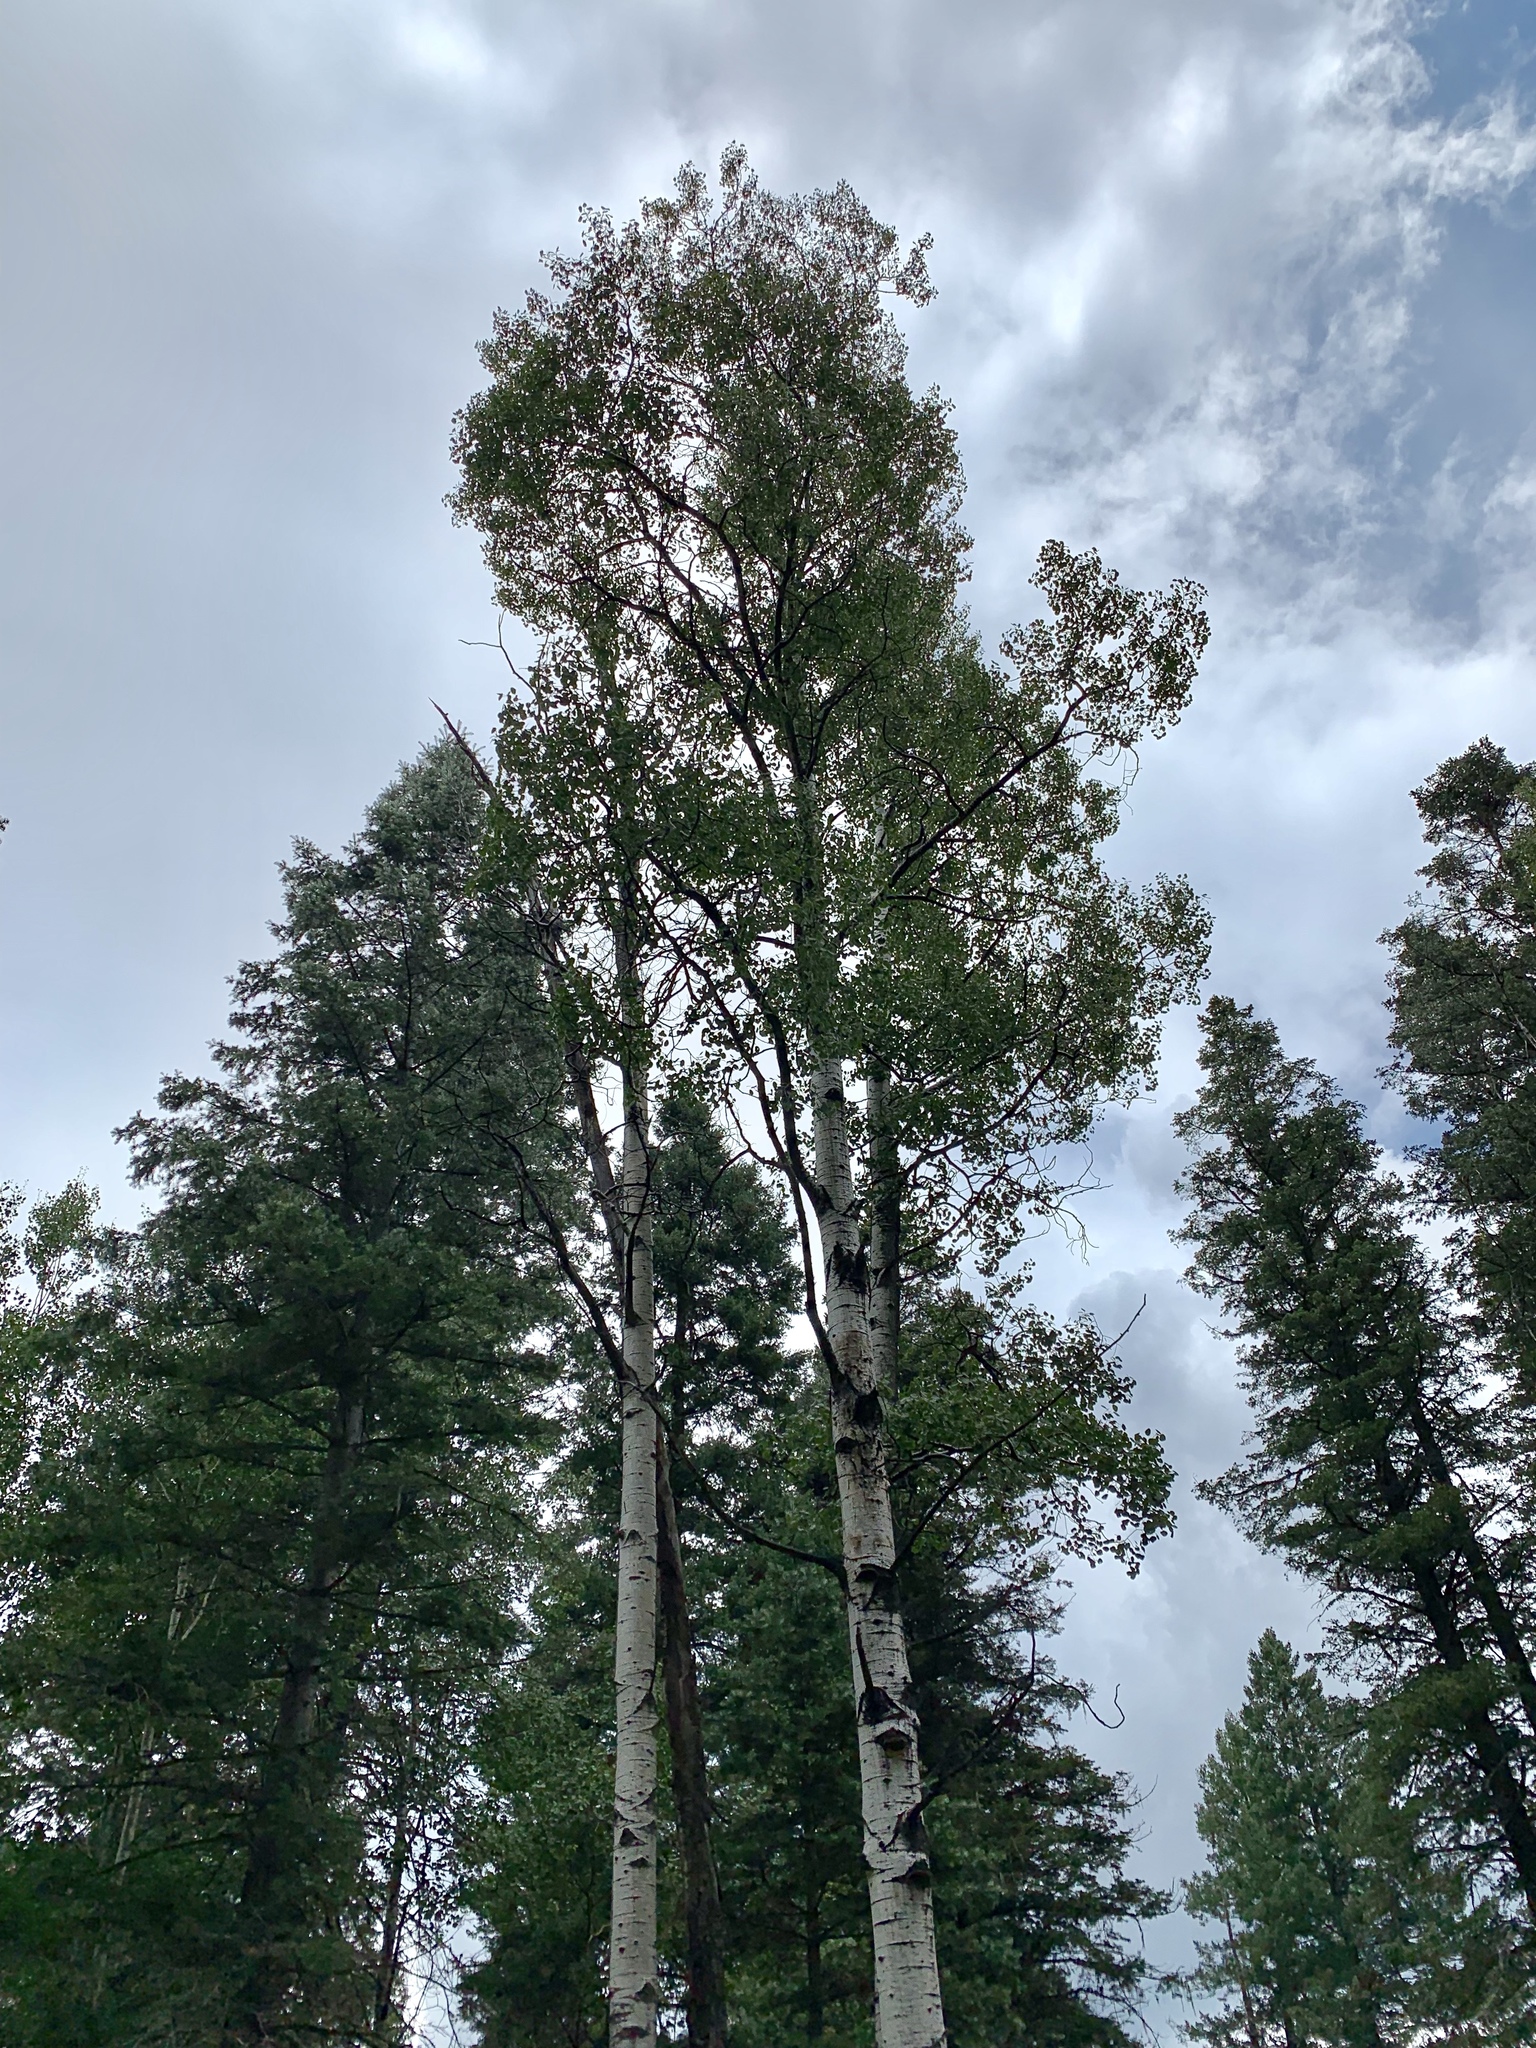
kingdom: Plantae
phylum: Tracheophyta
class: Magnoliopsida
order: Malpighiales
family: Salicaceae
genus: Populus
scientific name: Populus tremuloides
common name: Quaking aspen
